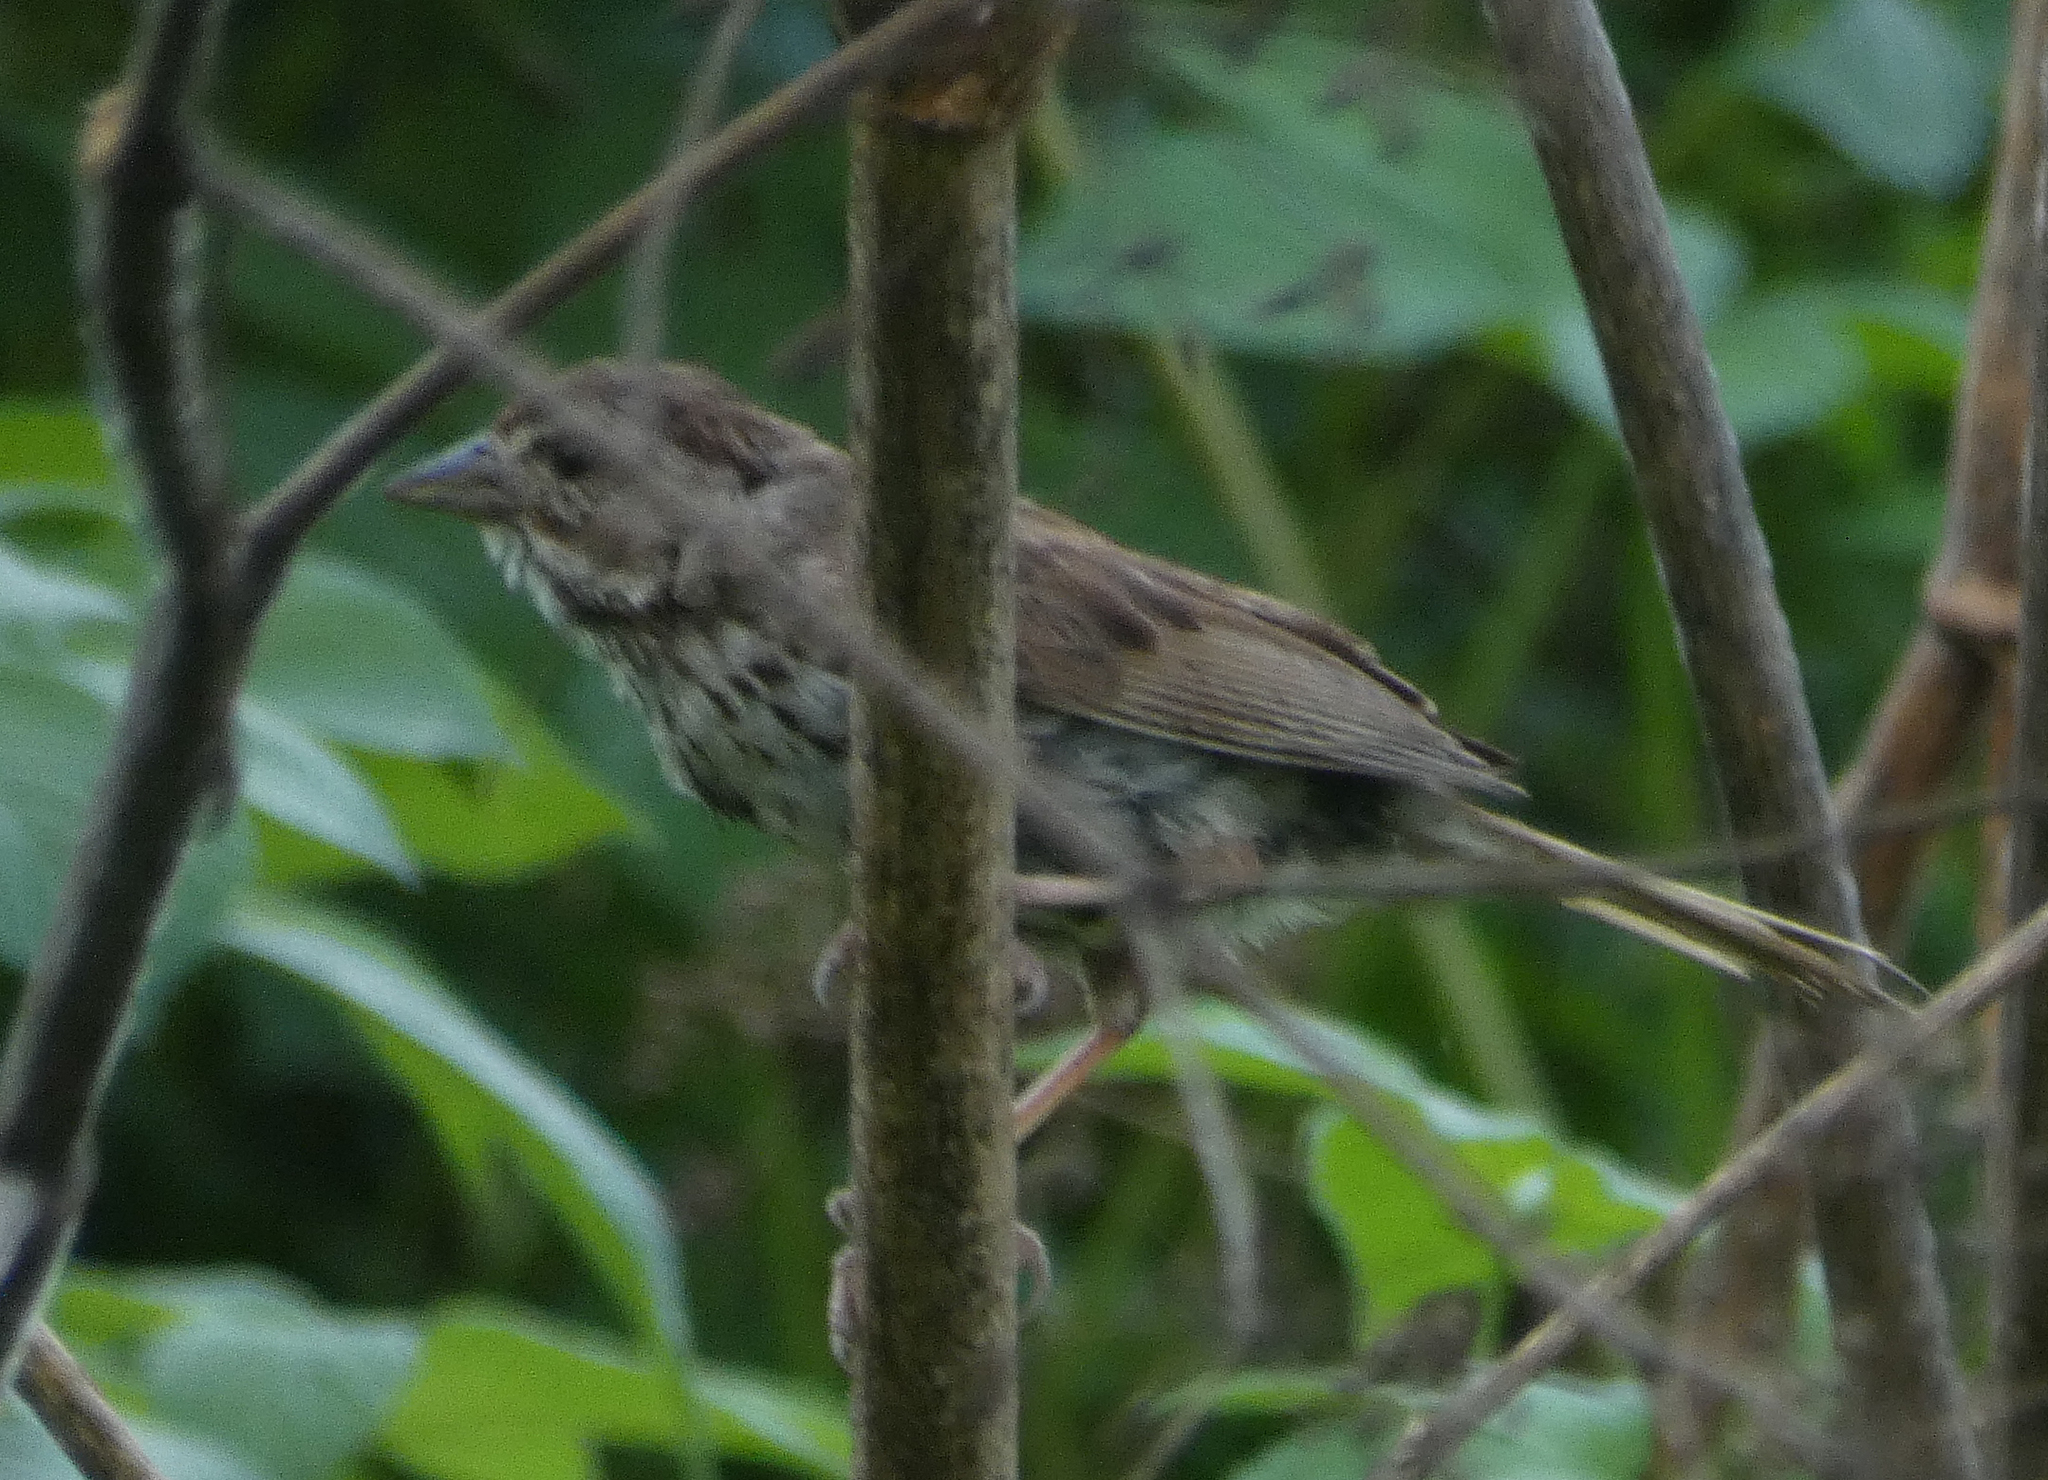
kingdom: Animalia
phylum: Chordata
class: Aves
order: Passeriformes
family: Passerellidae
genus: Melospiza
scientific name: Melospiza melodia
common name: Song sparrow
